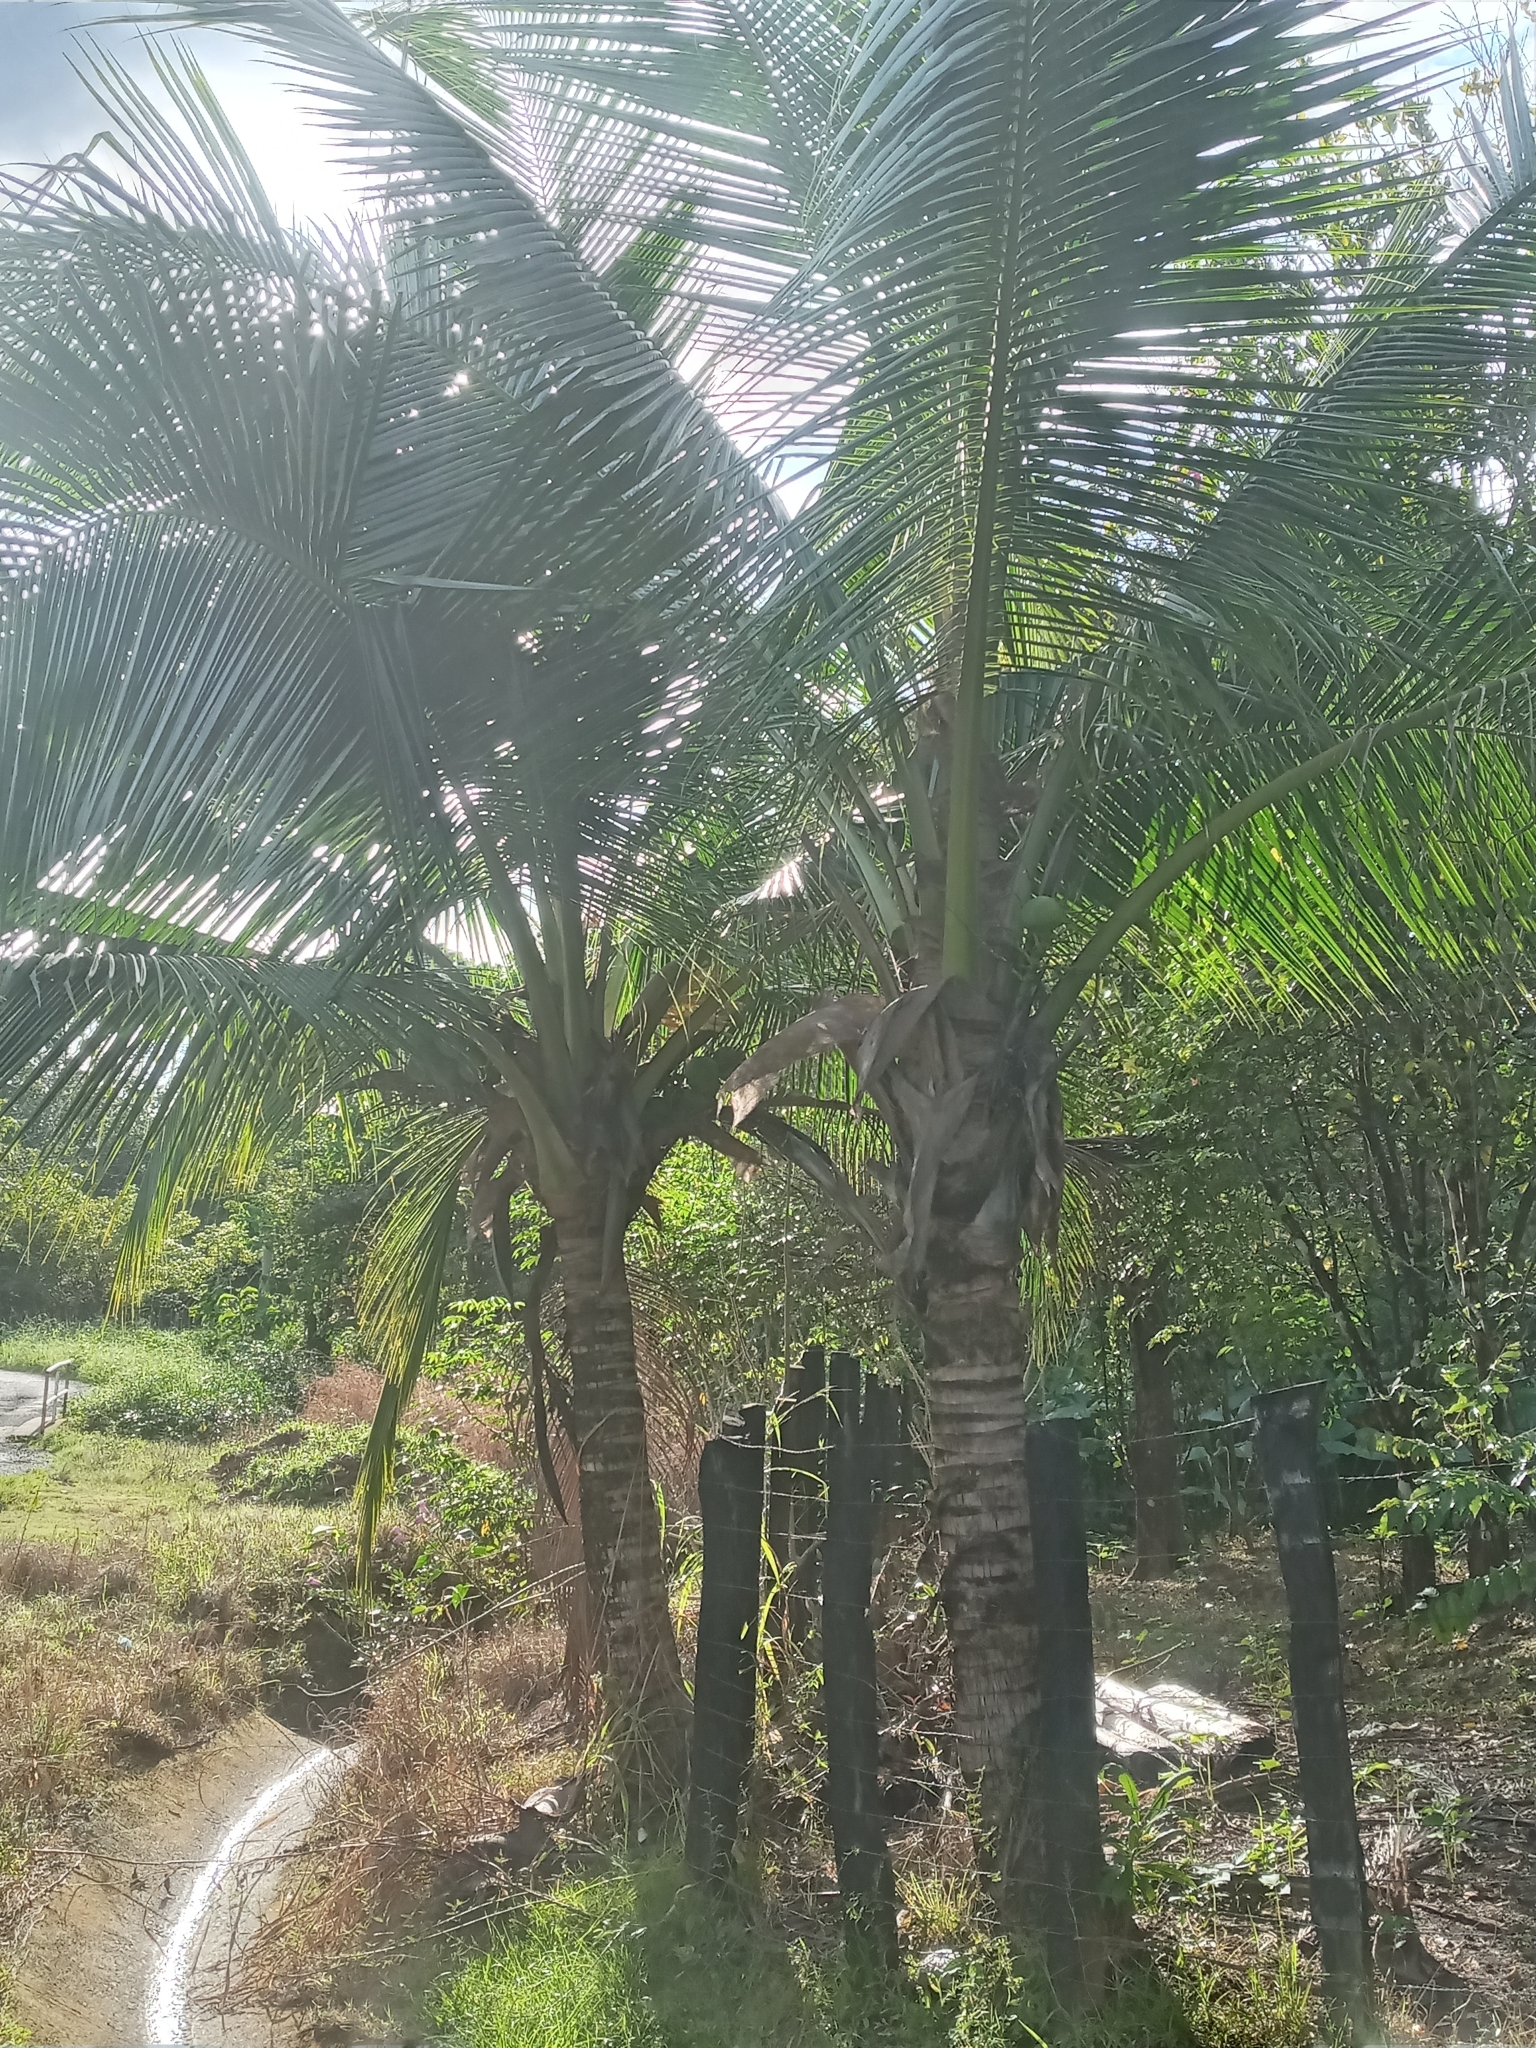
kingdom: Plantae
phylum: Tracheophyta
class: Liliopsida
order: Arecales
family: Arecaceae
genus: Cocos
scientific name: Cocos nucifera
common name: Coconut palm
